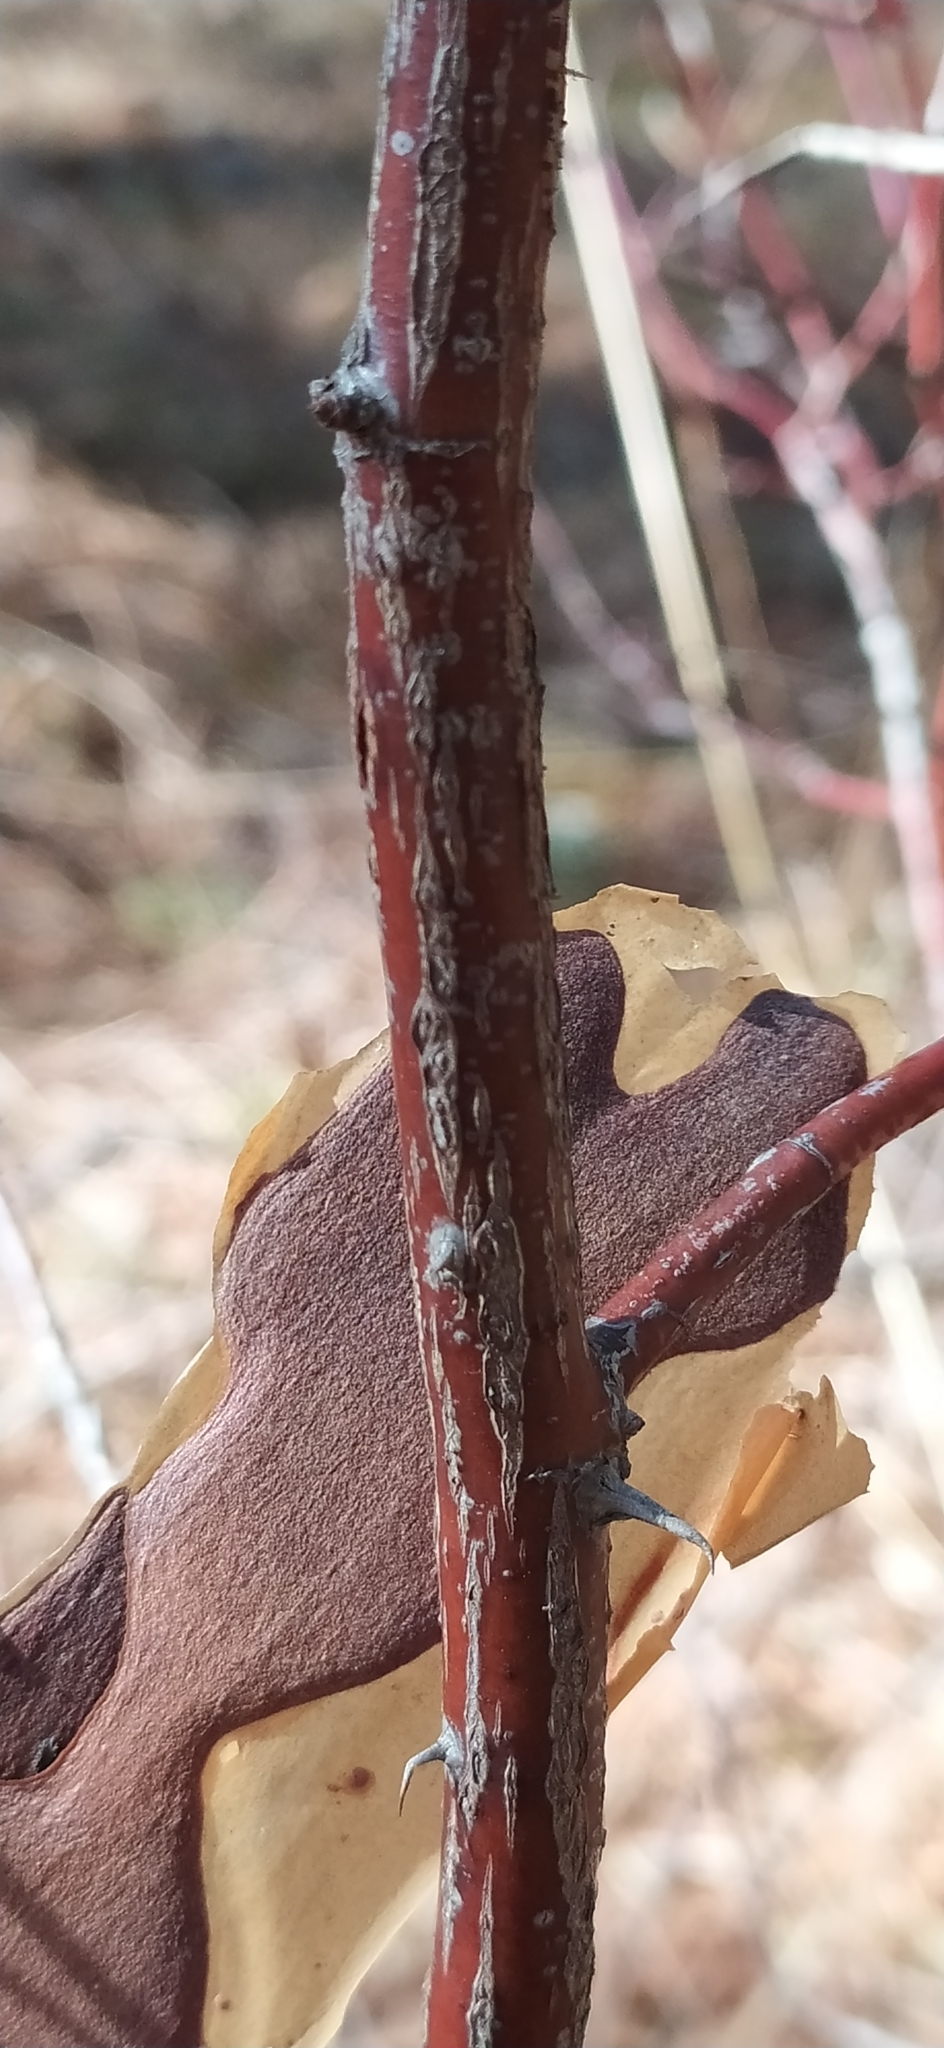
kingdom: Plantae
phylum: Tracheophyta
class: Magnoliopsida
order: Rosales
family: Rosaceae
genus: Rosa
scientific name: Rosa
